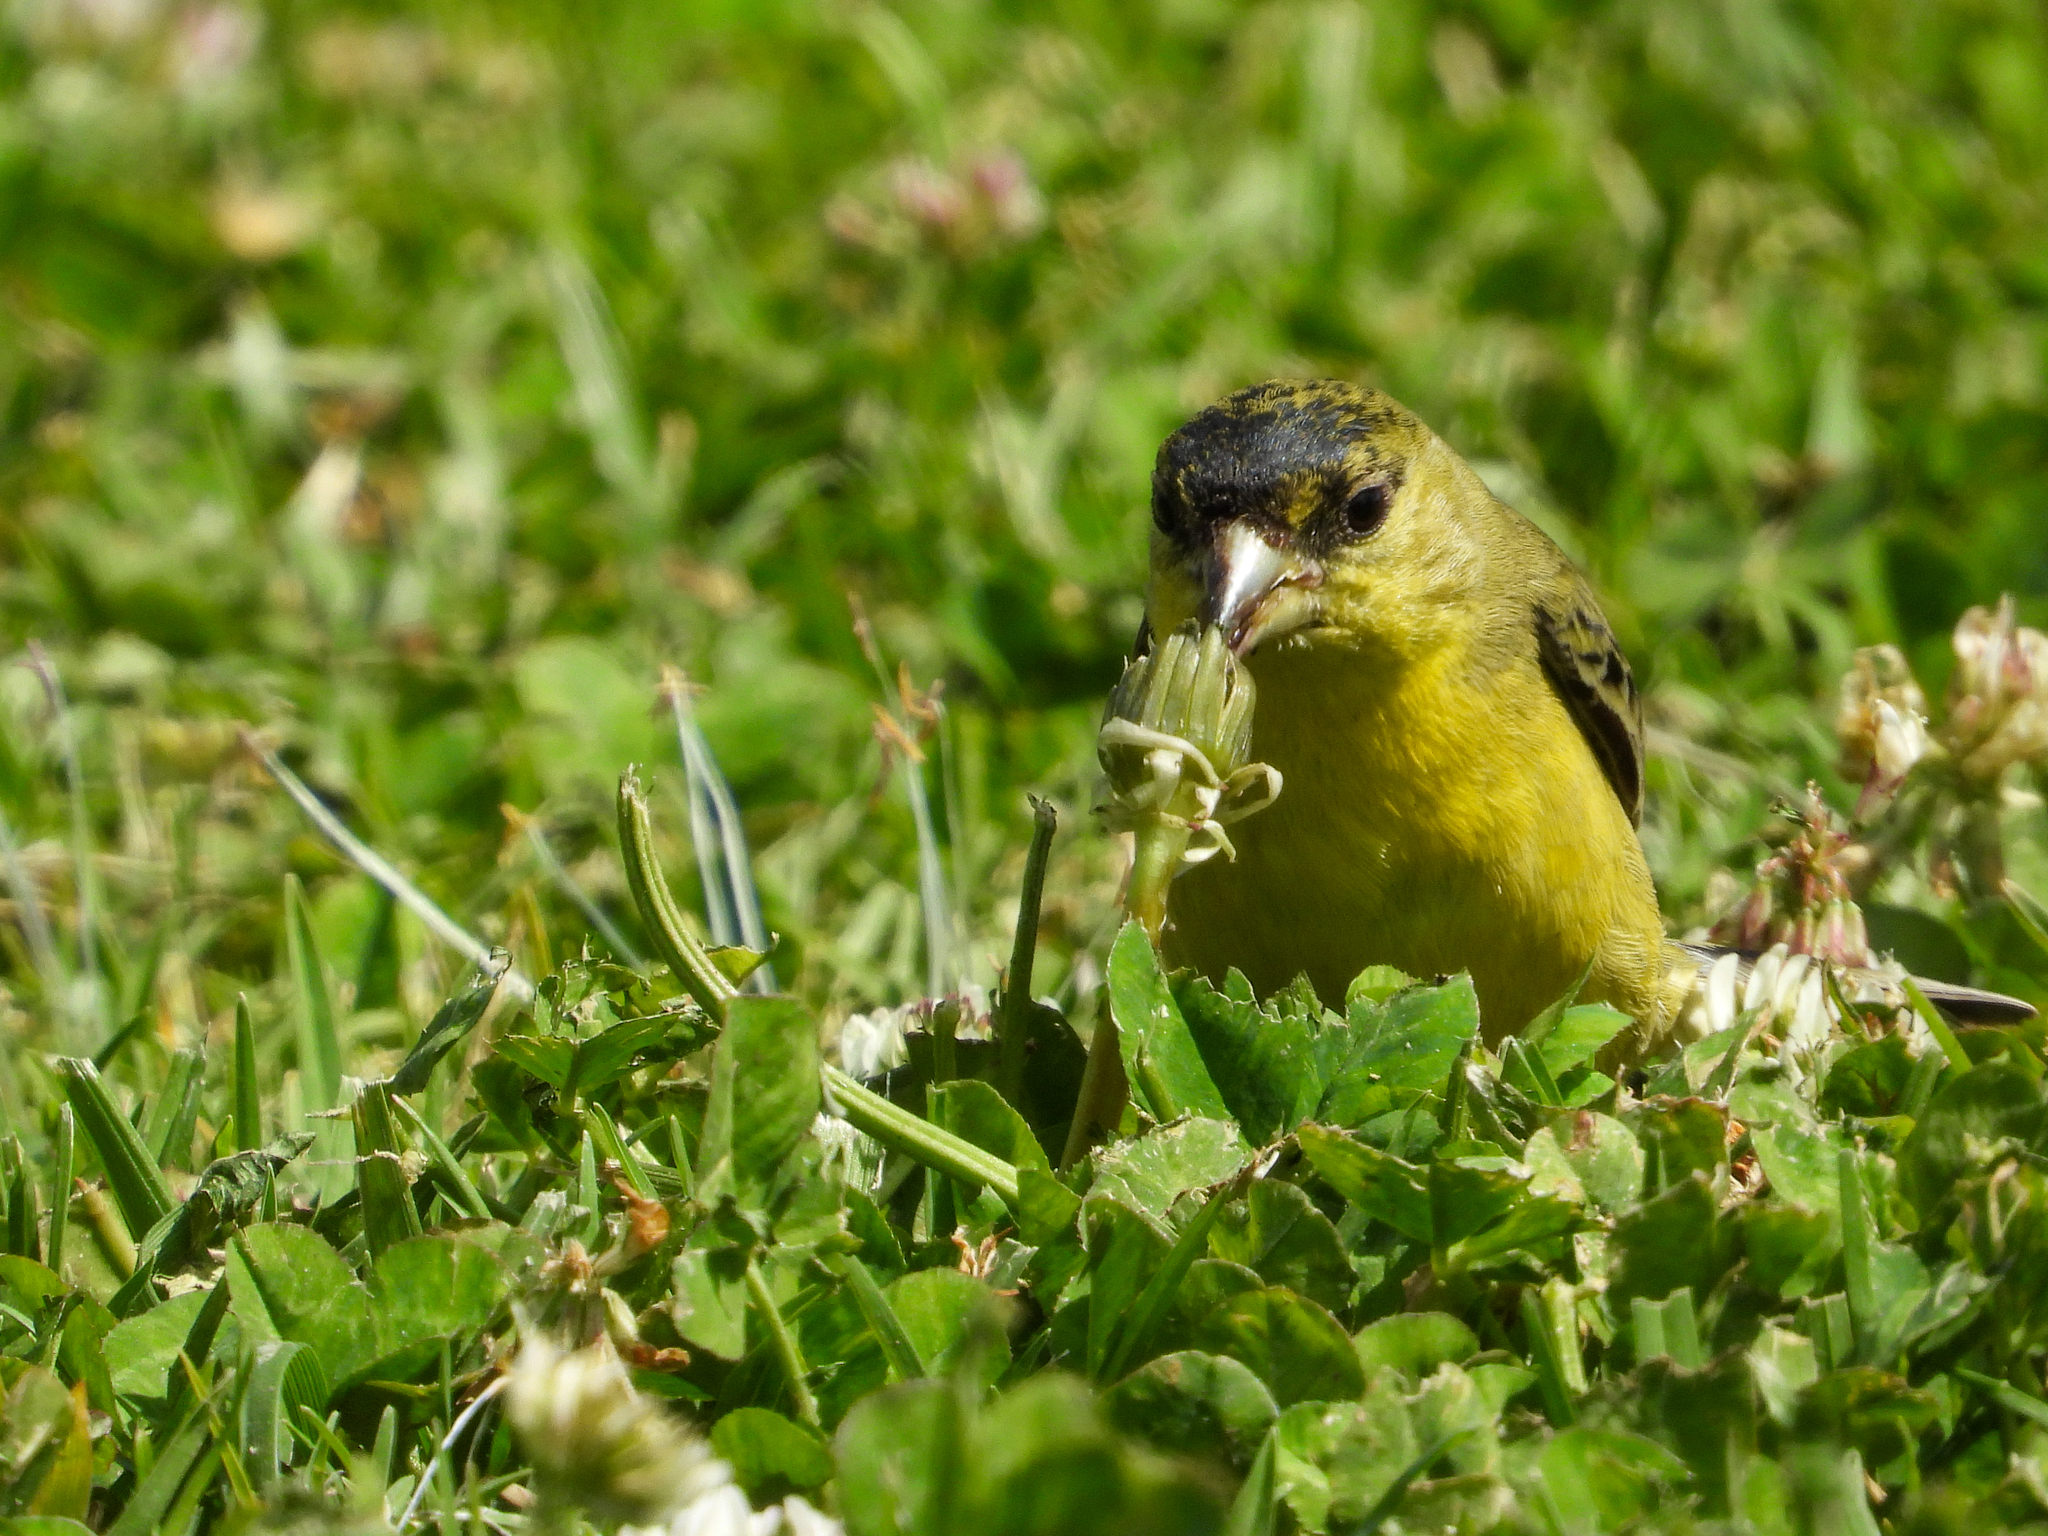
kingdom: Animalia
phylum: Chordata
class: Aves
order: Passeriformes
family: Fringillidae
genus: Spinus
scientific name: Spinus psaltria
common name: Lesser goldfinch
